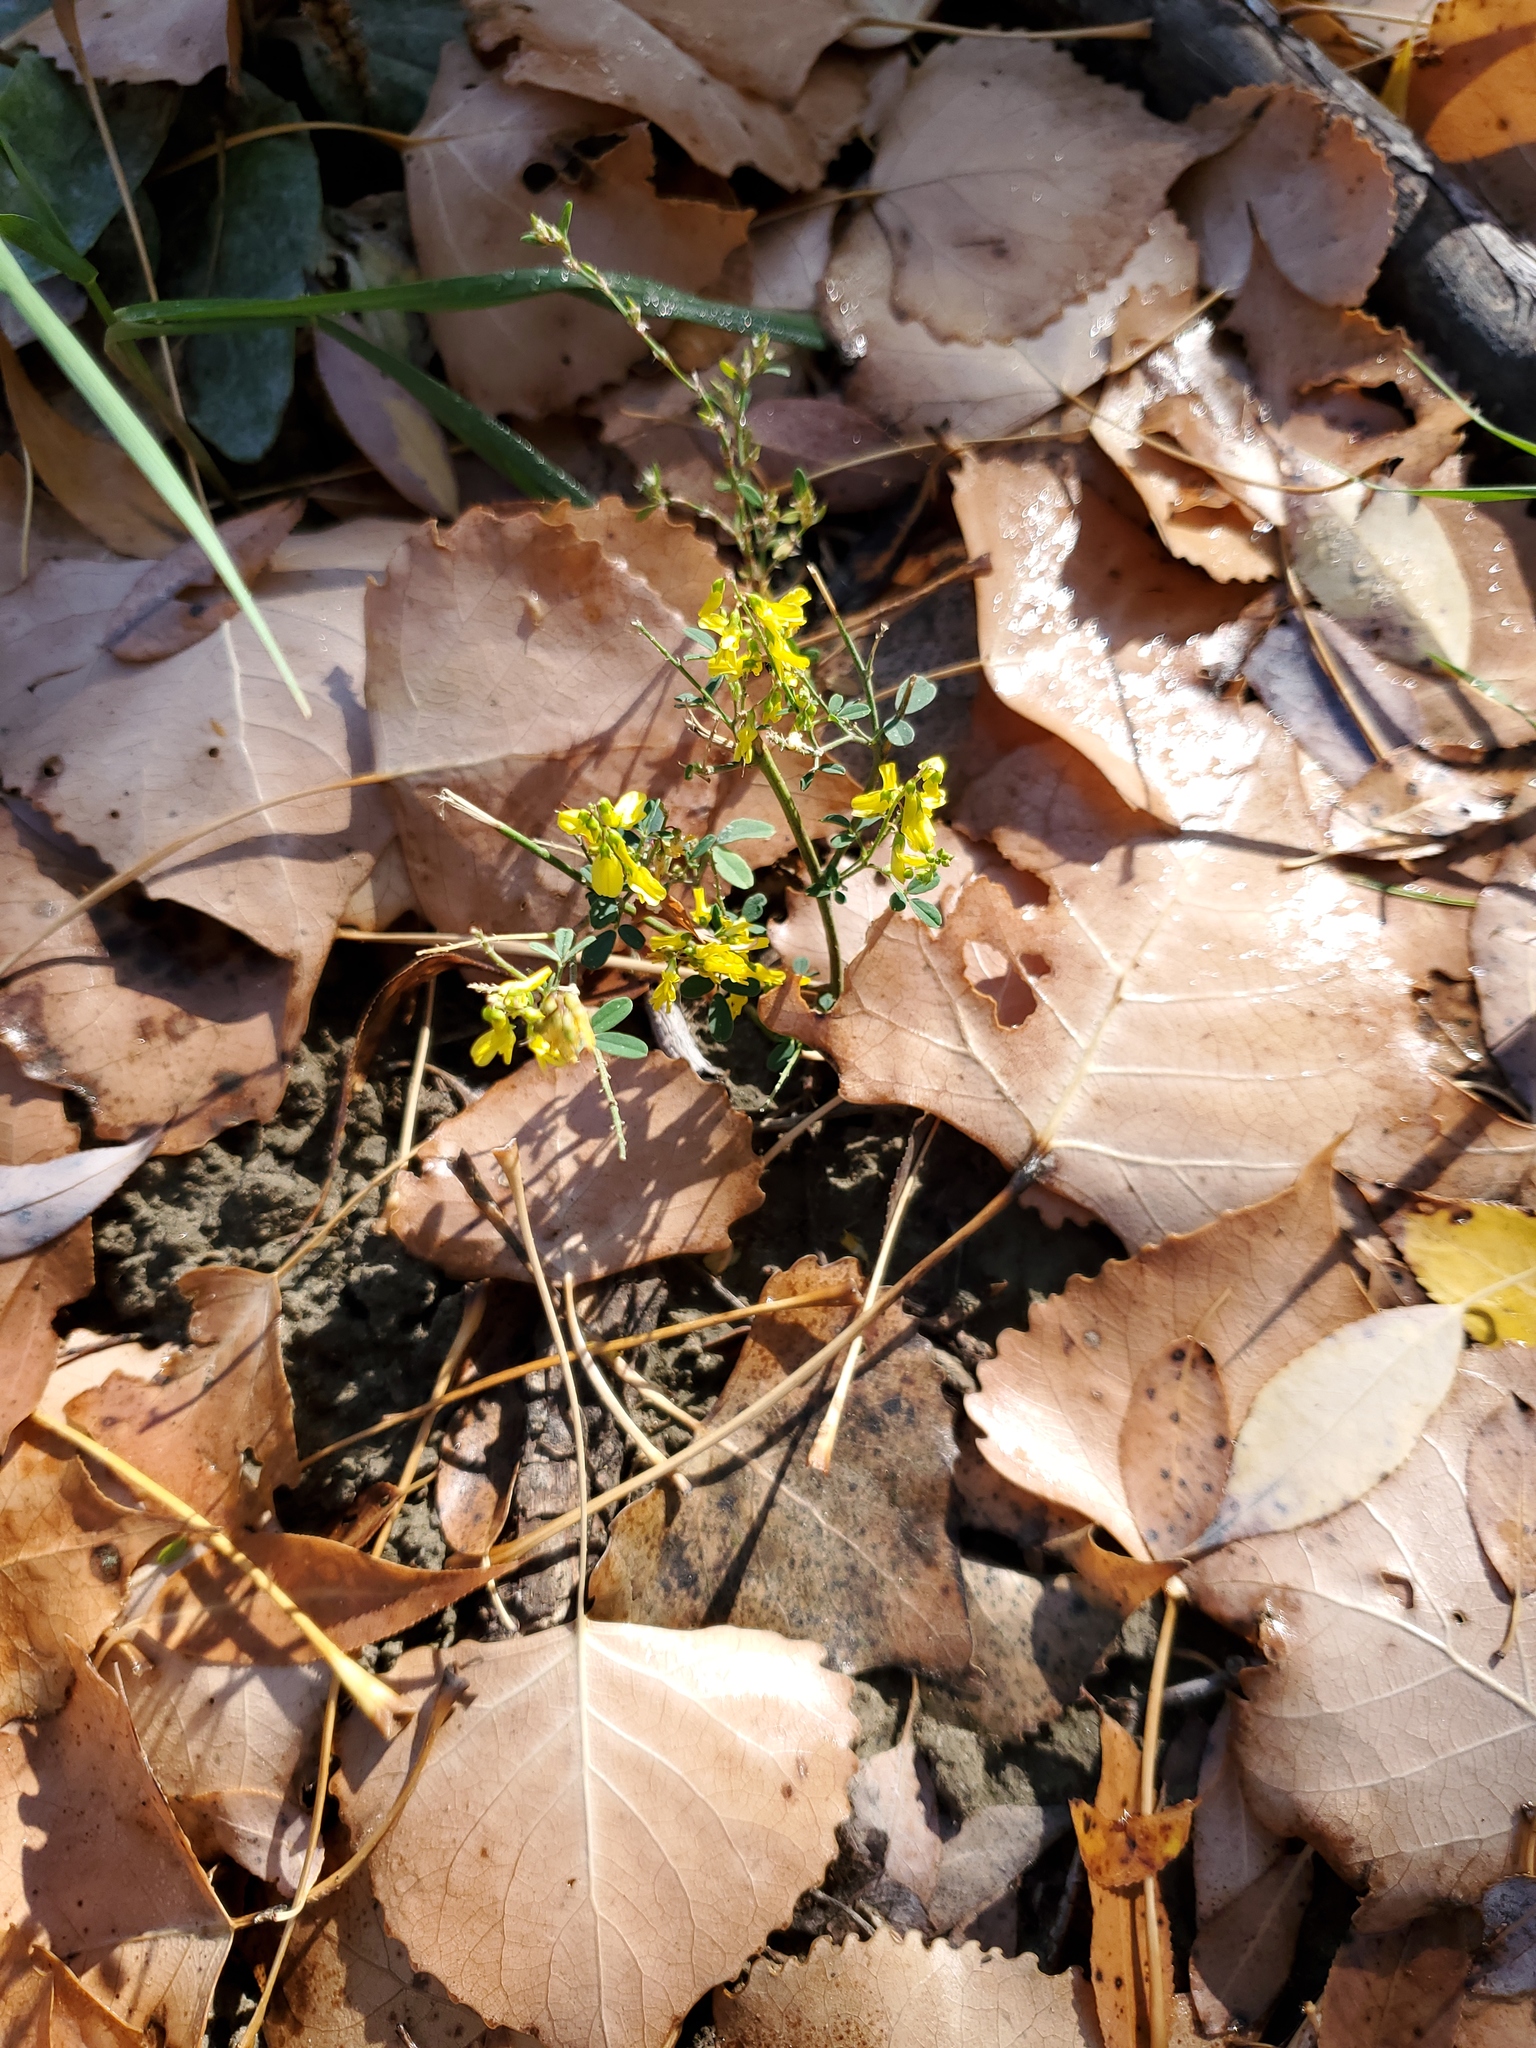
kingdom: Plantae
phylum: Tracheophyta
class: Magnoliopsida
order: Fabales
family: Fabaceae
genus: Melilotus
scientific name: Melilotus officinalis
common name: Sweetclover
